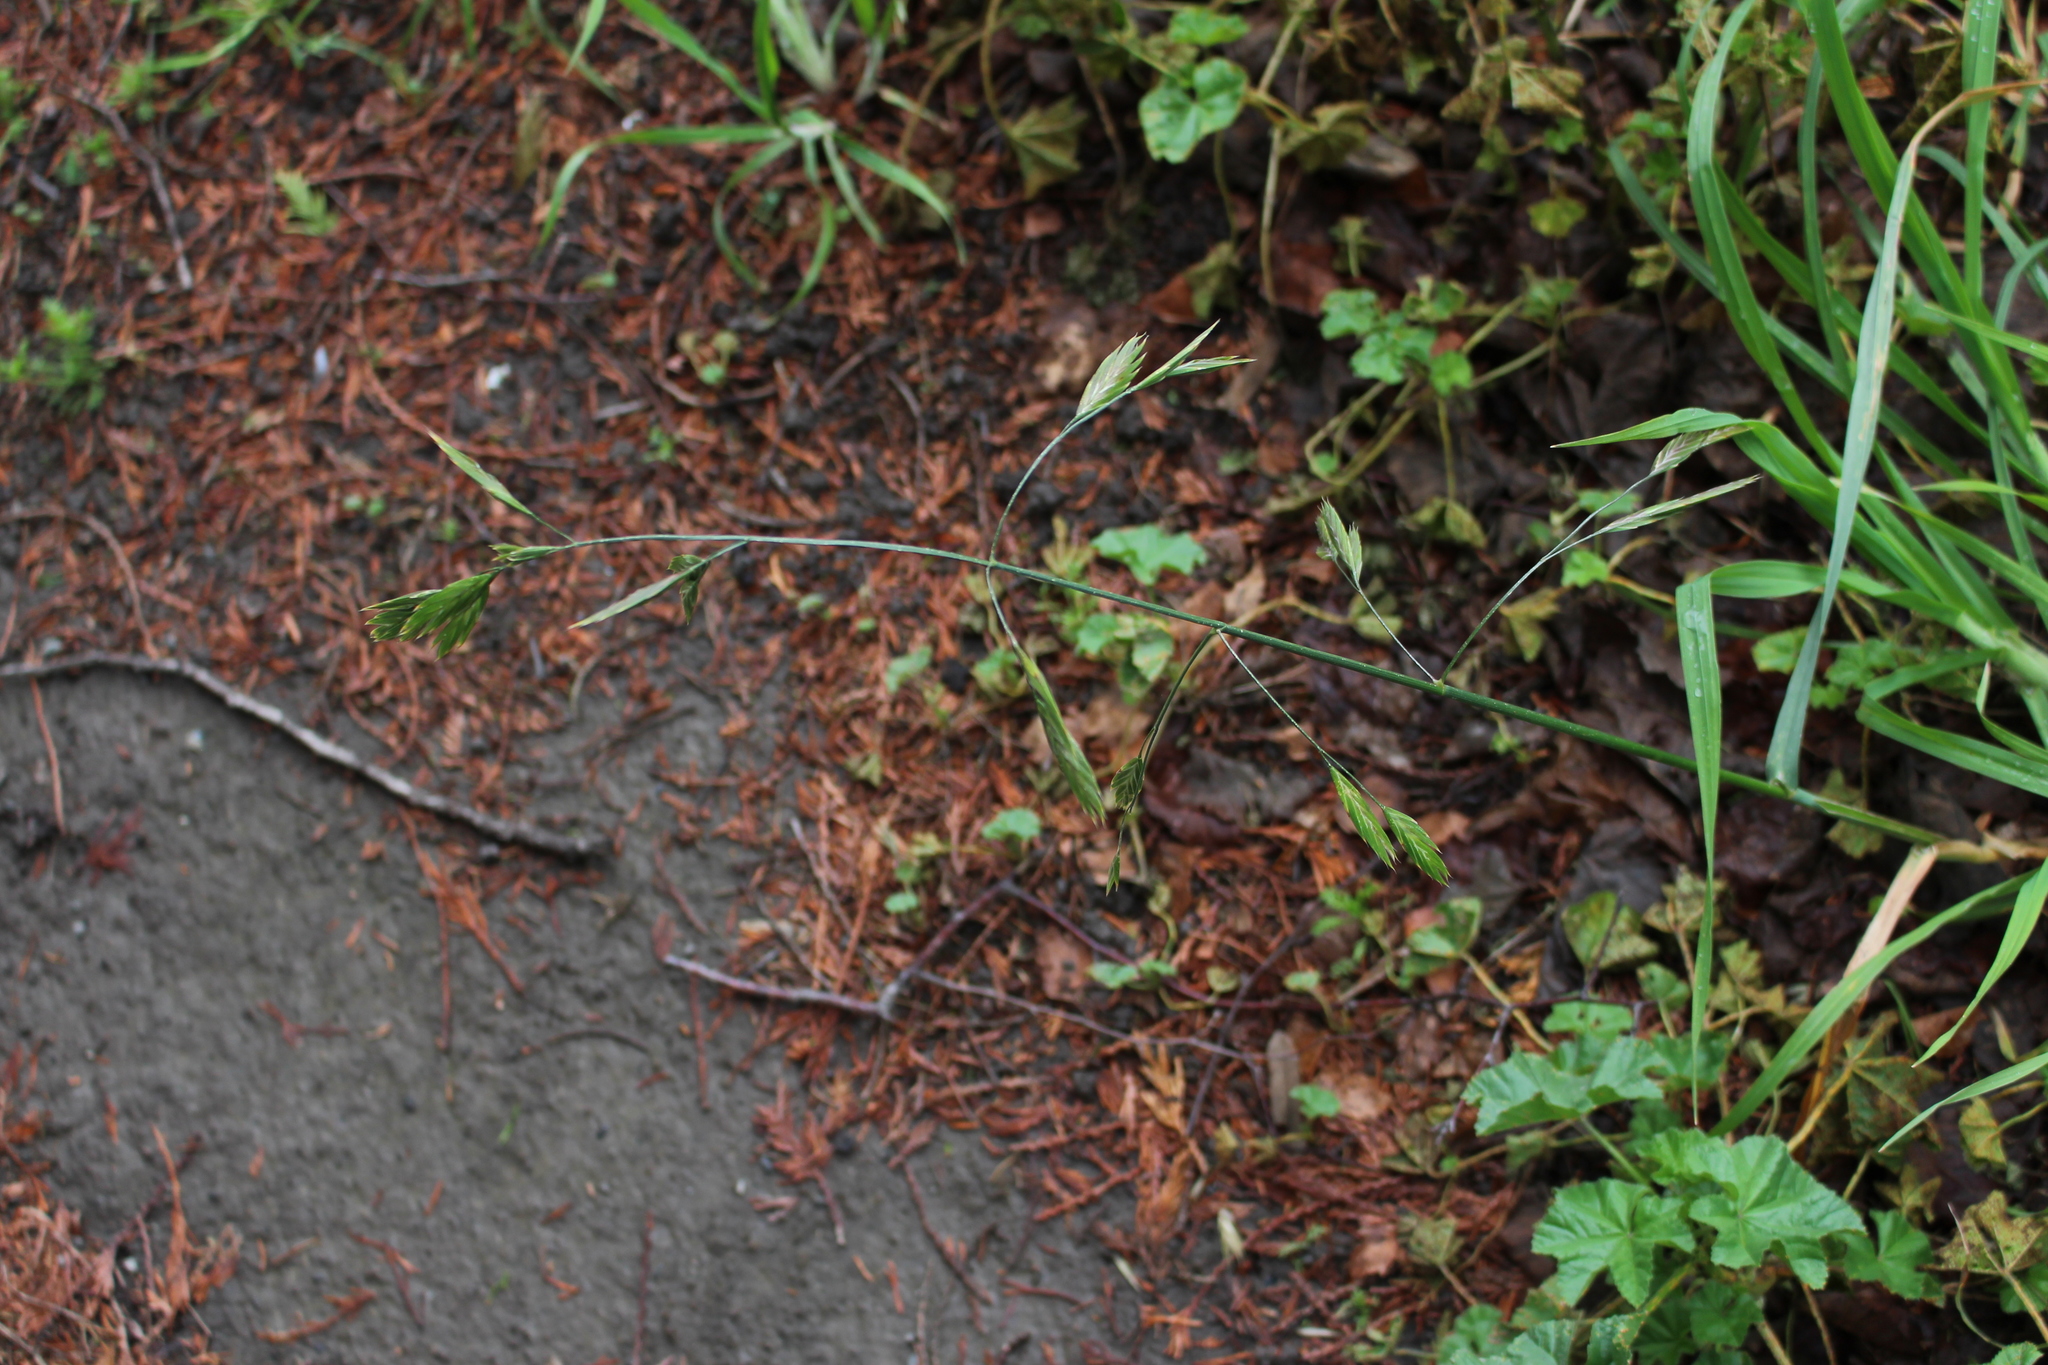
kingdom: Plantae
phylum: Tracheophyta
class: Liliopsida
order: Poales
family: Poaceae
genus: Bromus
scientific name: Bromus catharticus
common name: Rescuegrass
